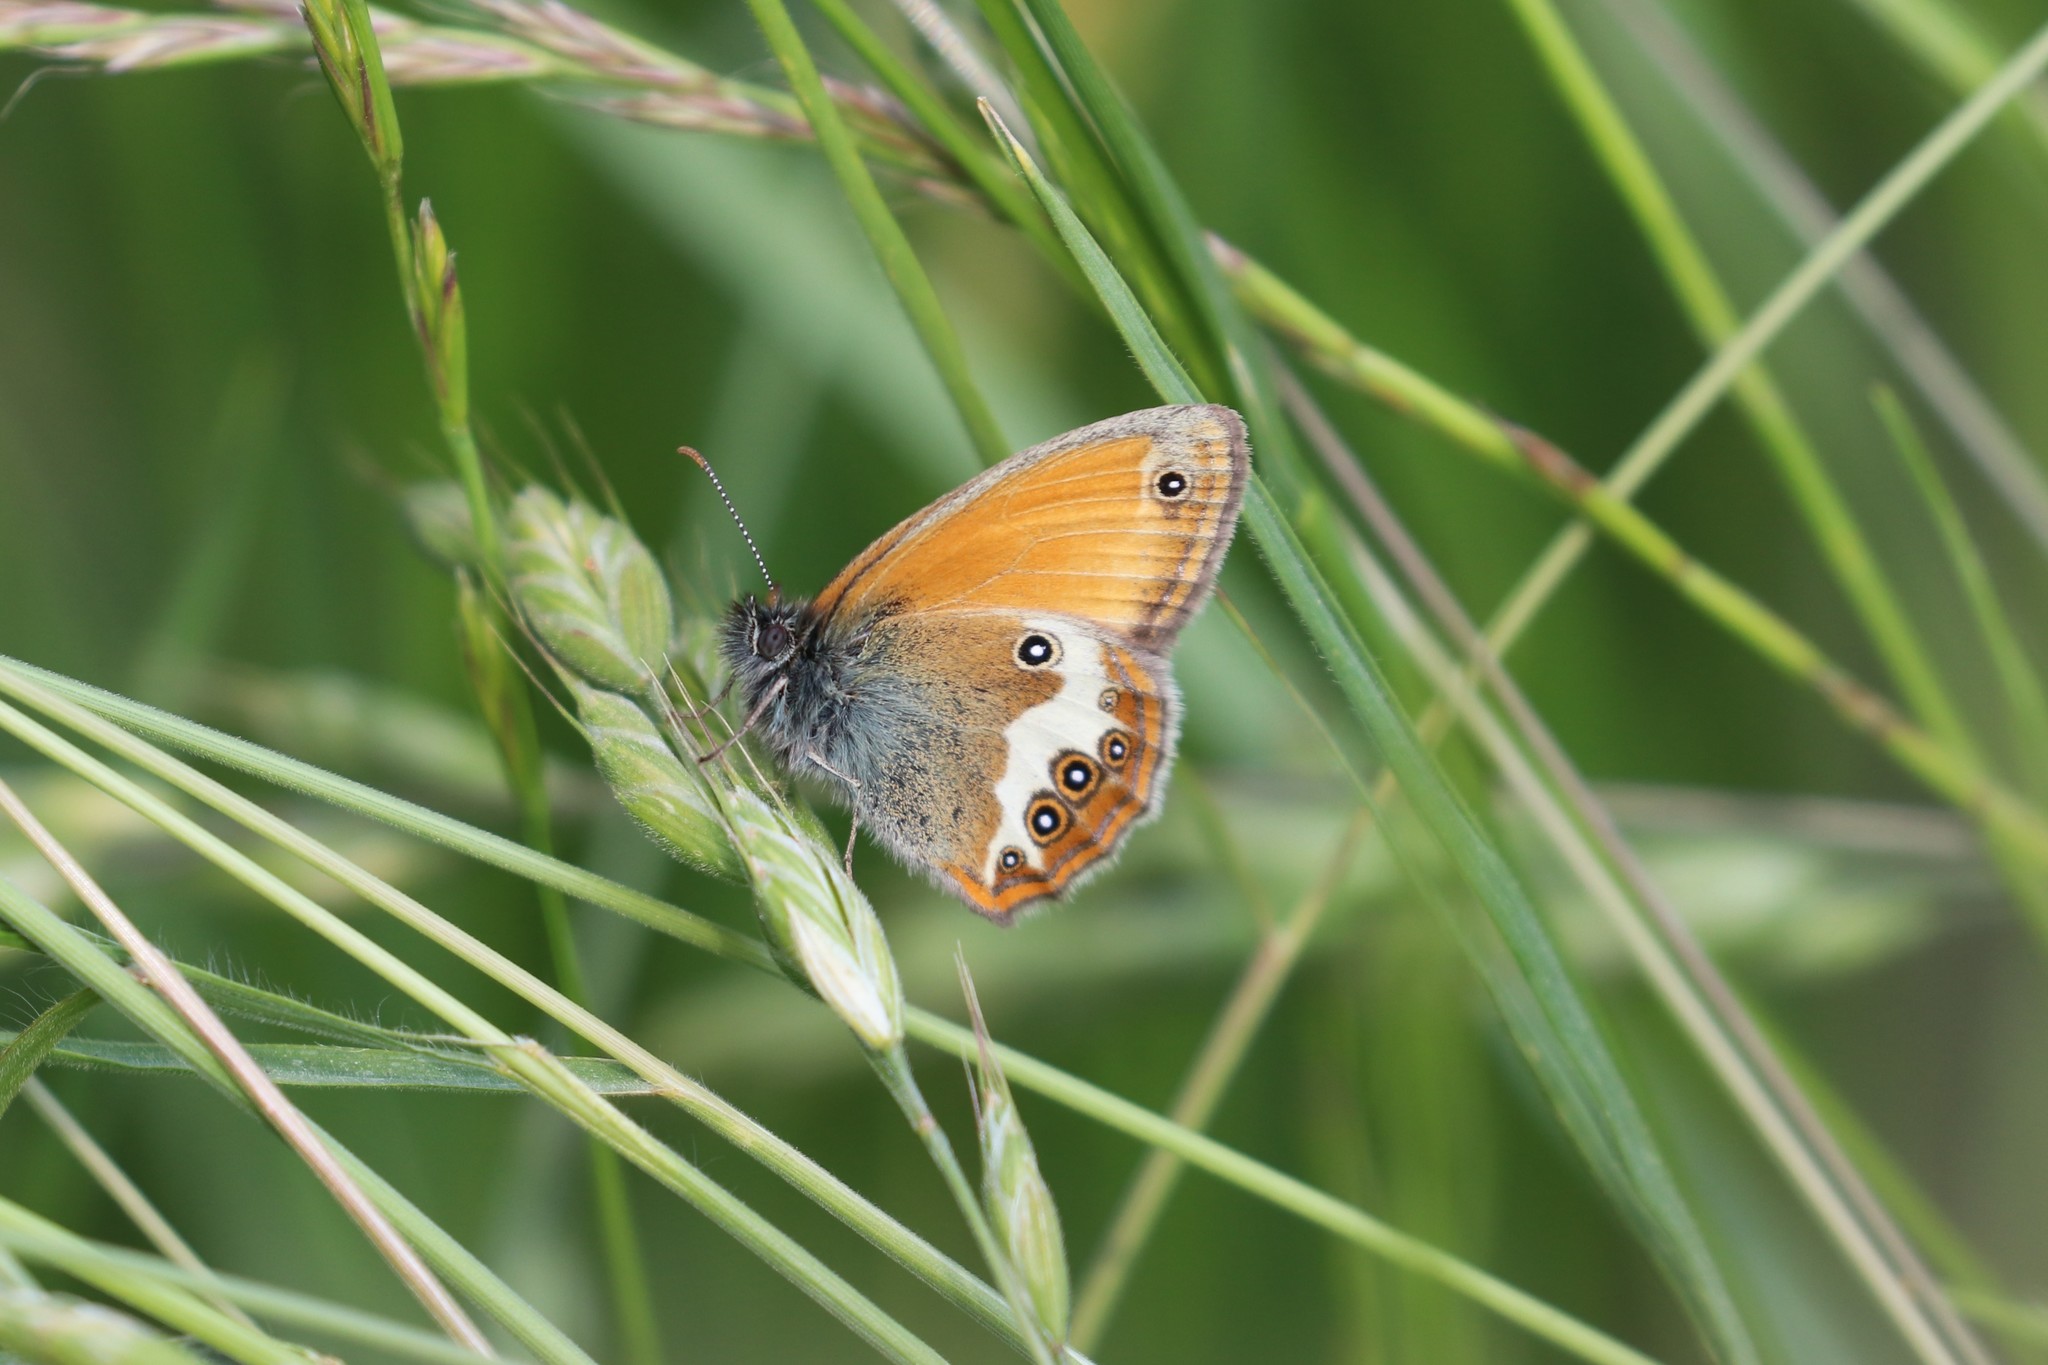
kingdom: Animalia
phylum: Arthropoda
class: Insecta
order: Lepidoptera
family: Nymphalidae
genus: Coenonympha
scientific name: Coenonympha arcania
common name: Pearly heath
